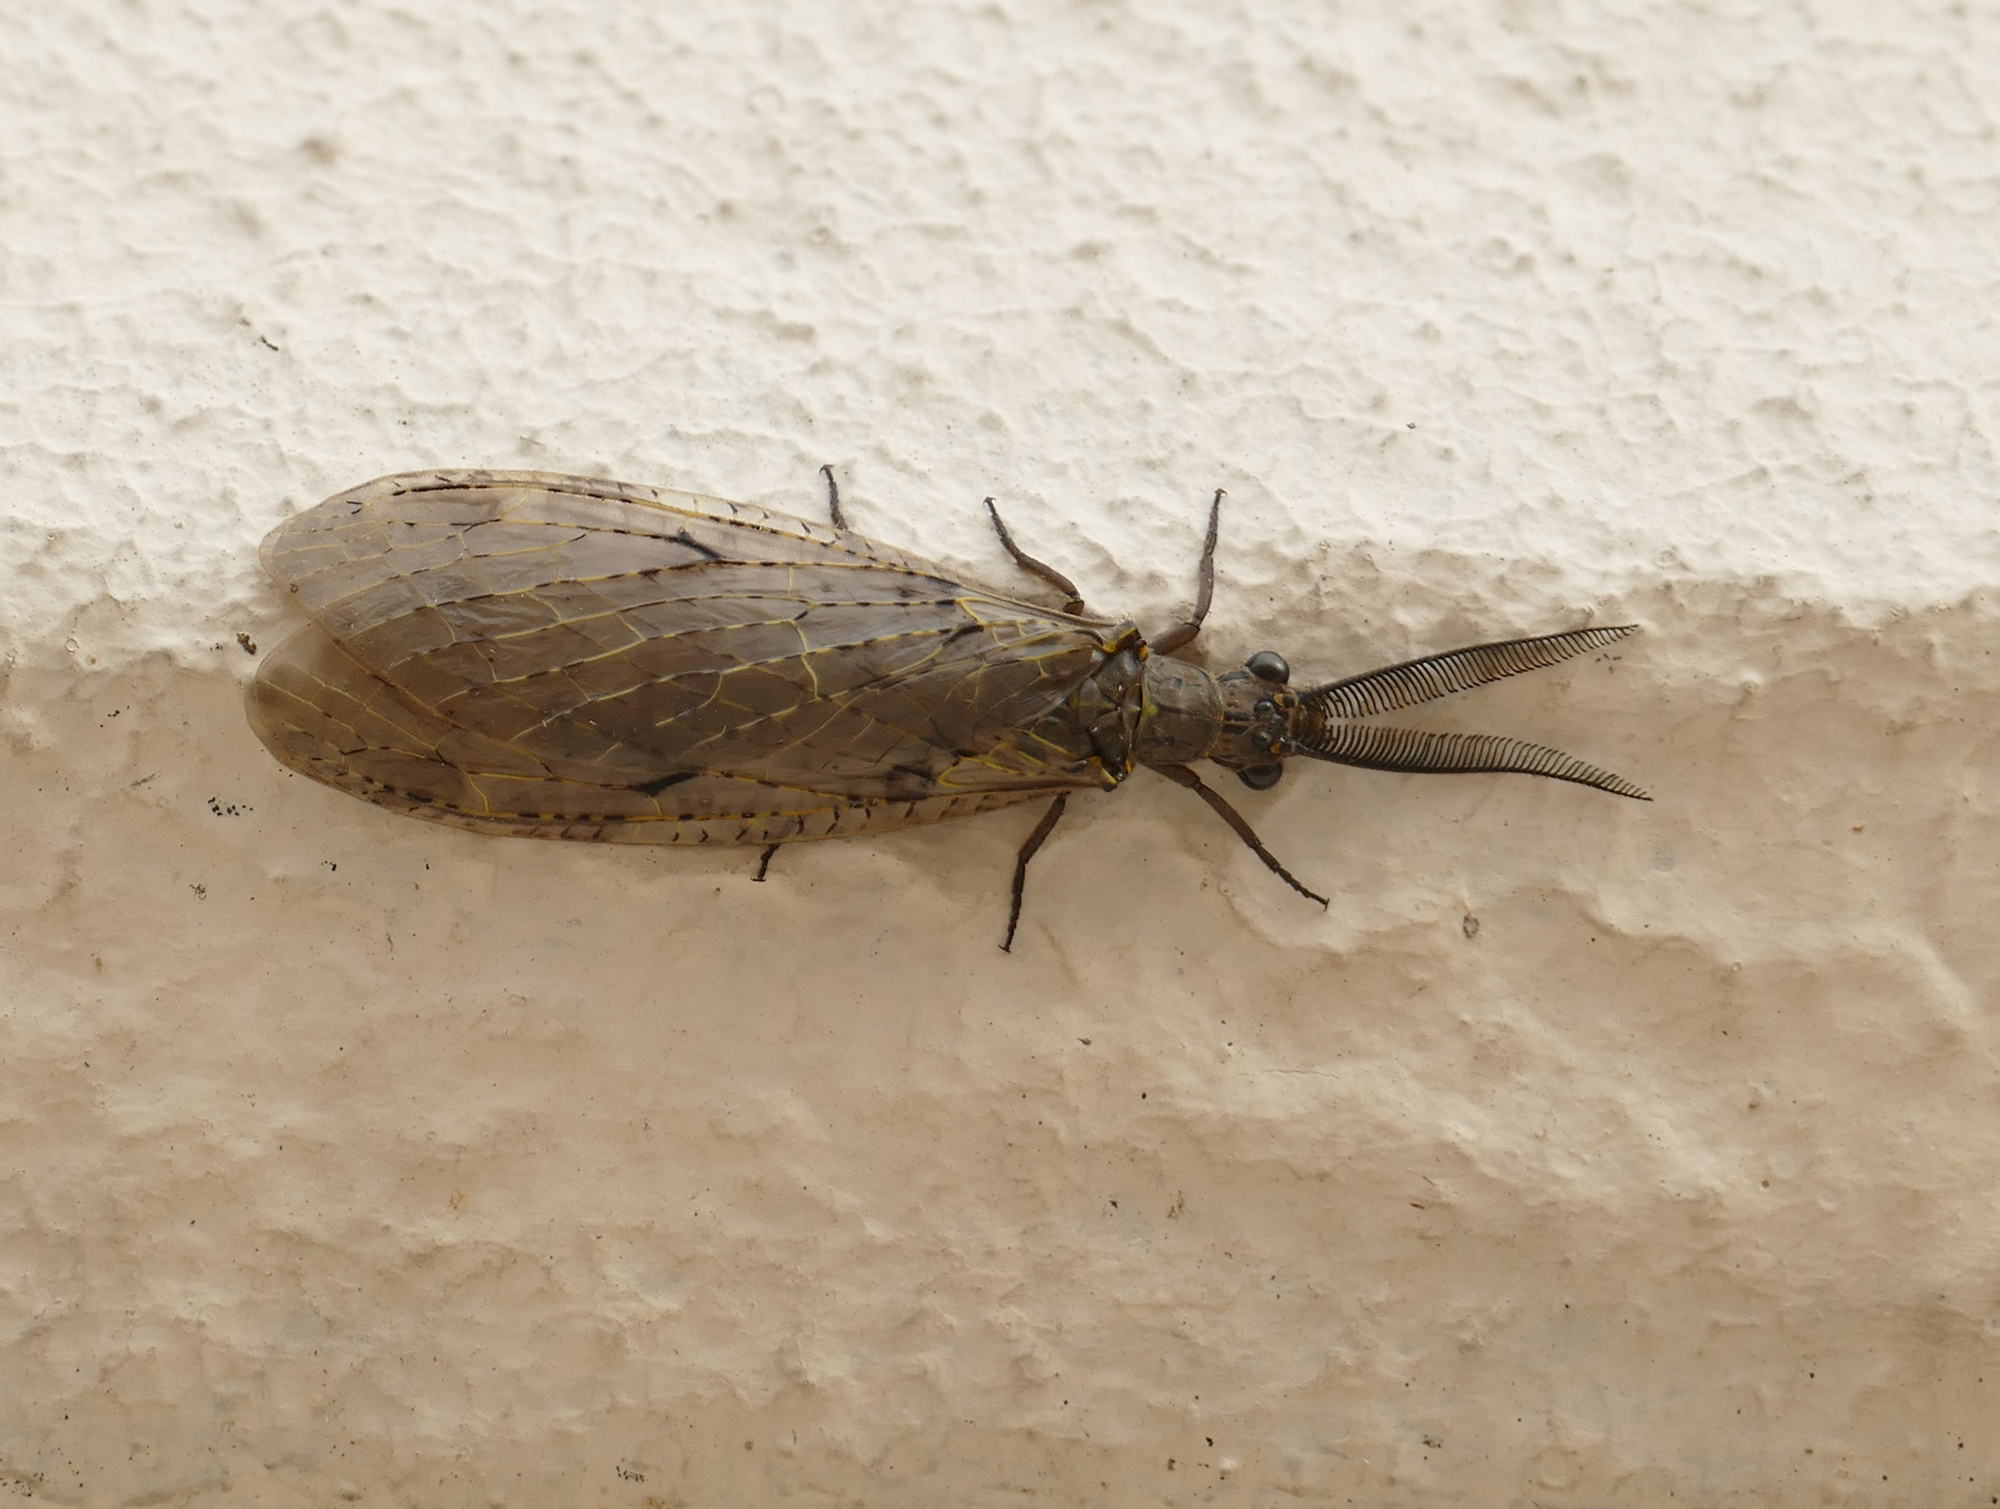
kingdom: Animalia
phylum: Arthropoda
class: Insecta
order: Megaloptera
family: Corydalidae
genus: Chauliodes
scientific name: Chauliodes rastricornis
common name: Spring fishfly
